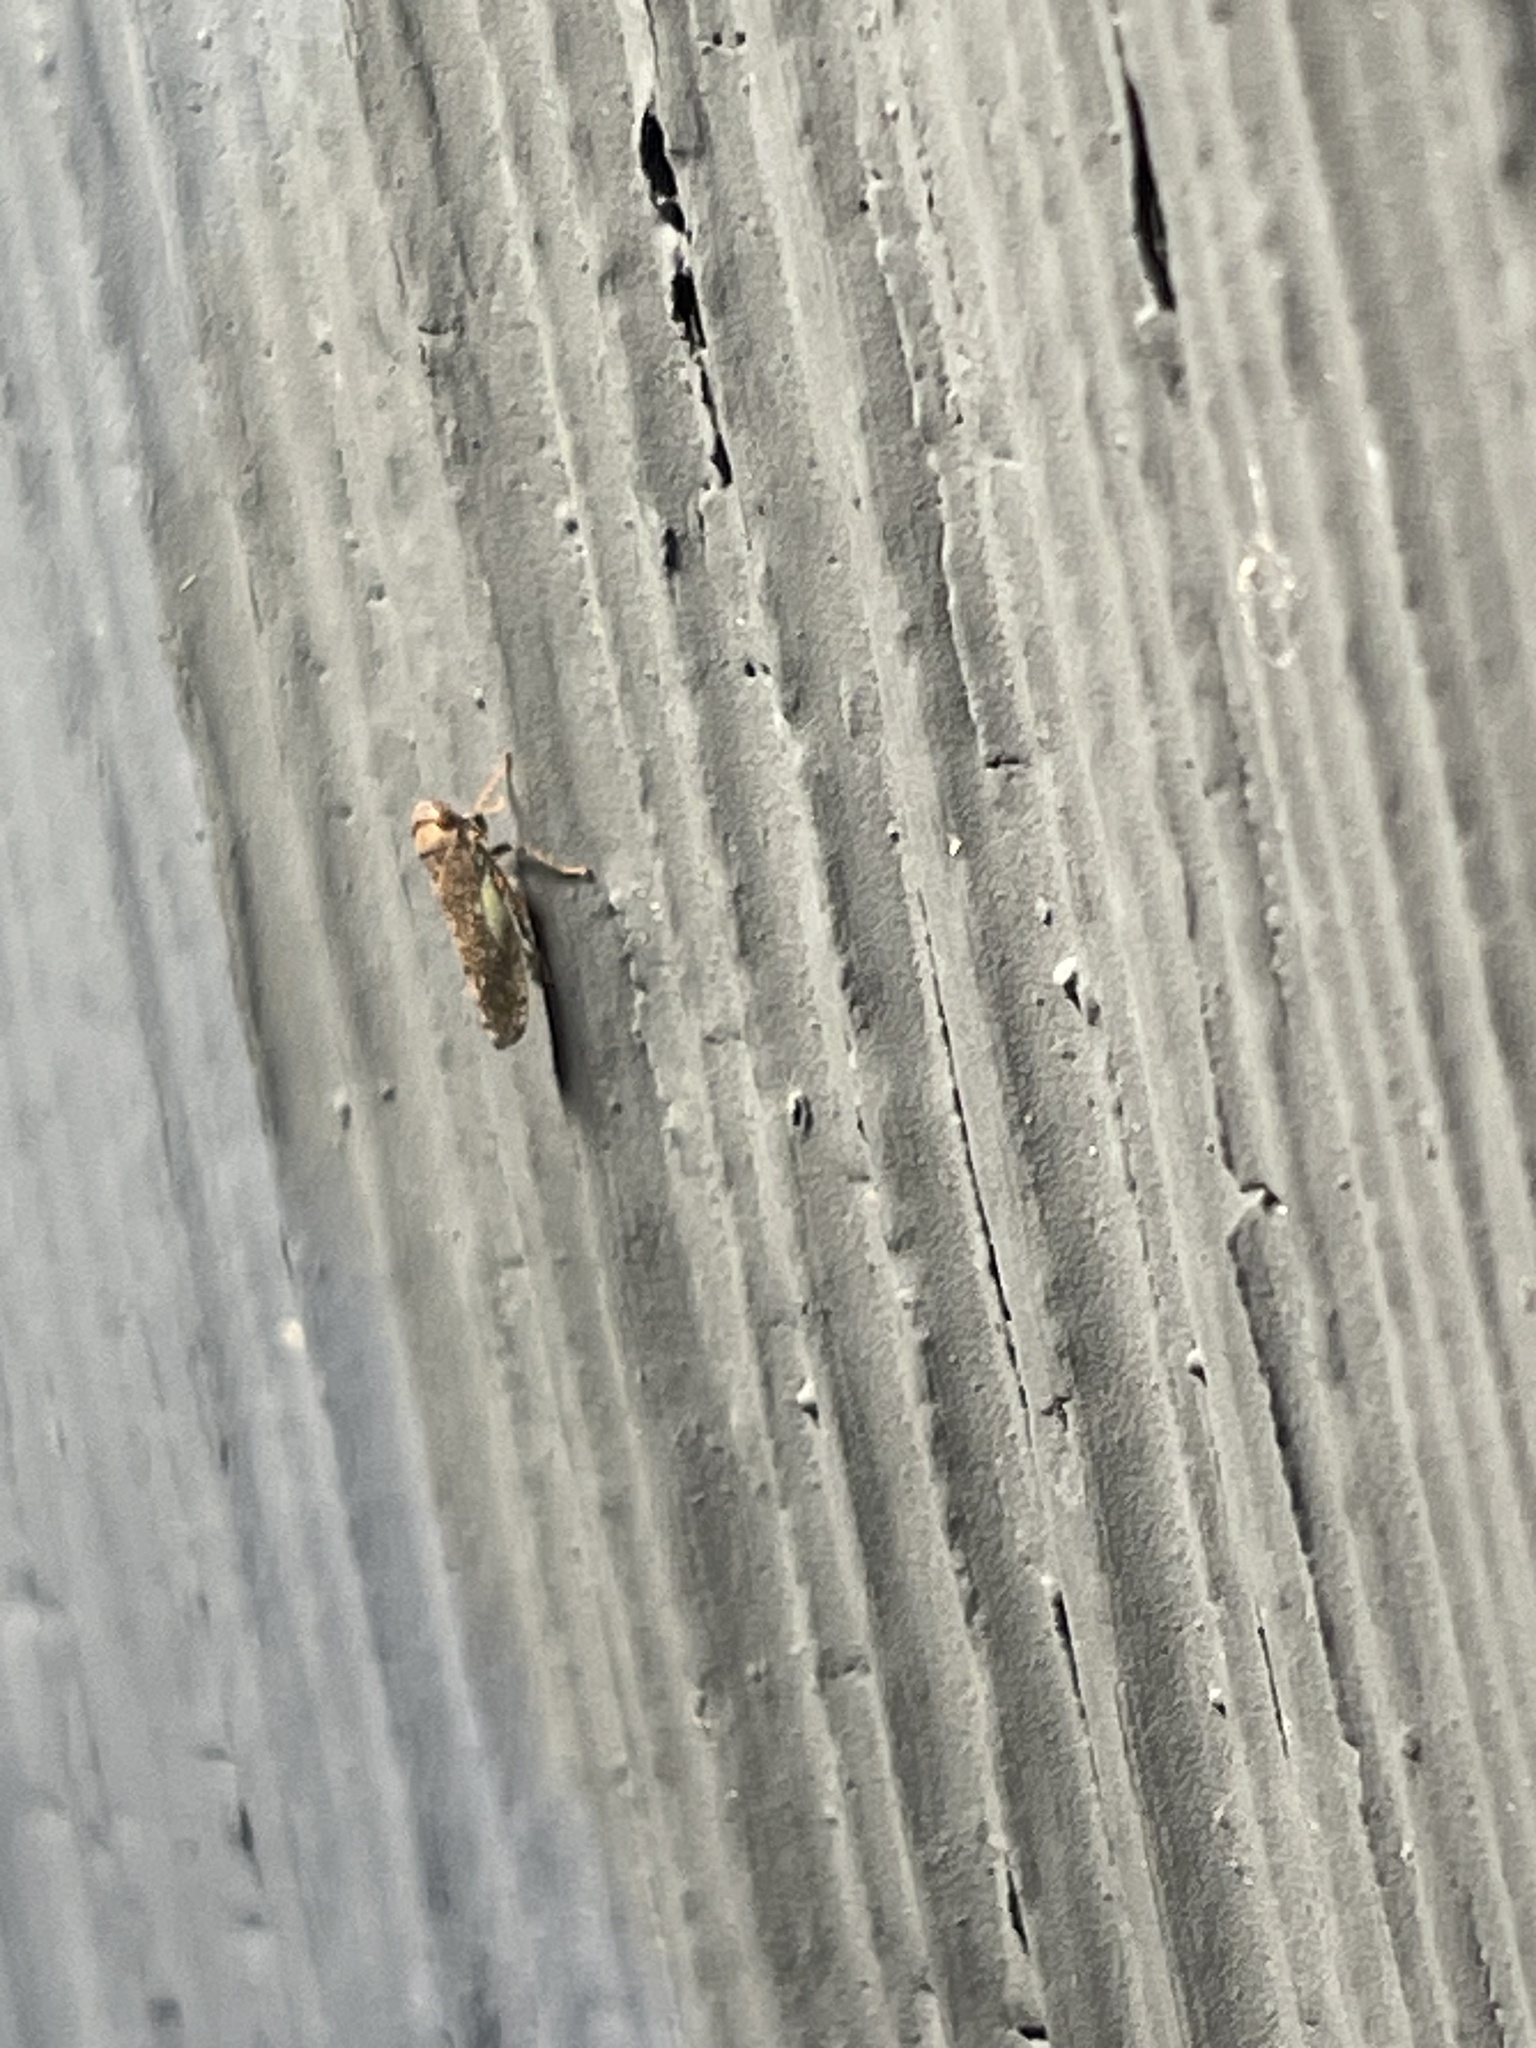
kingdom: Animalia
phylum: Arthropoda
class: Insecta
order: Hemiptera
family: Cicadellidae
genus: Orientus
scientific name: Orientus ishidae
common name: Japanese leafhopper
